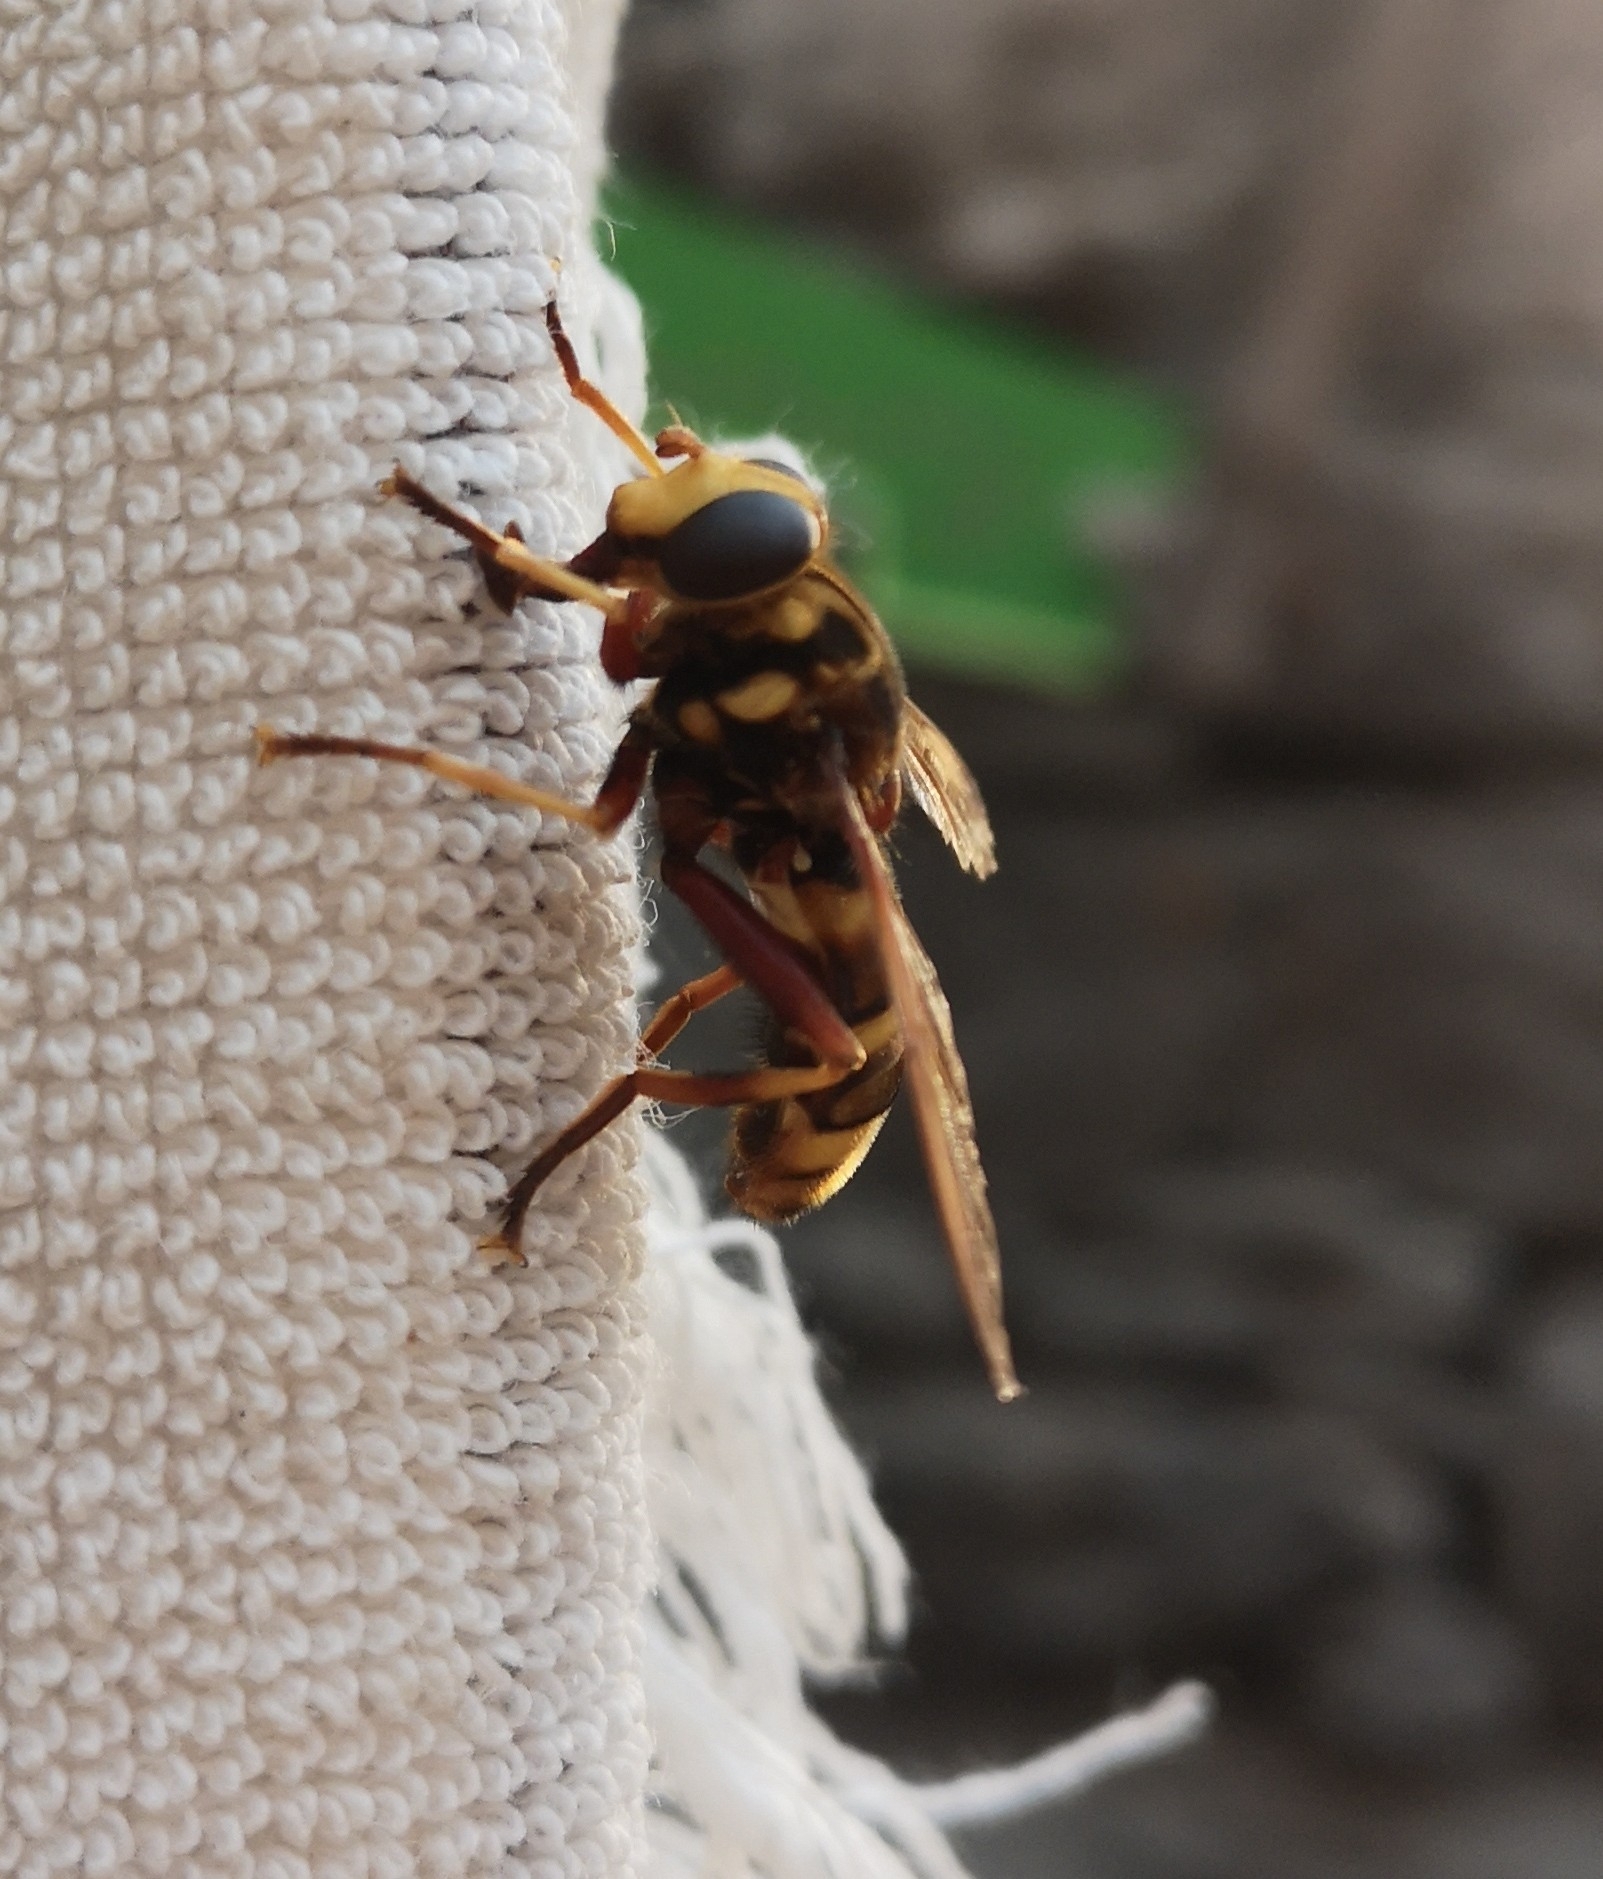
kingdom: Animalia
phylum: Arthropoda
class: Insecta
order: Diptera
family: Syrphidae
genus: Milesia
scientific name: Milesia crabroniformis
